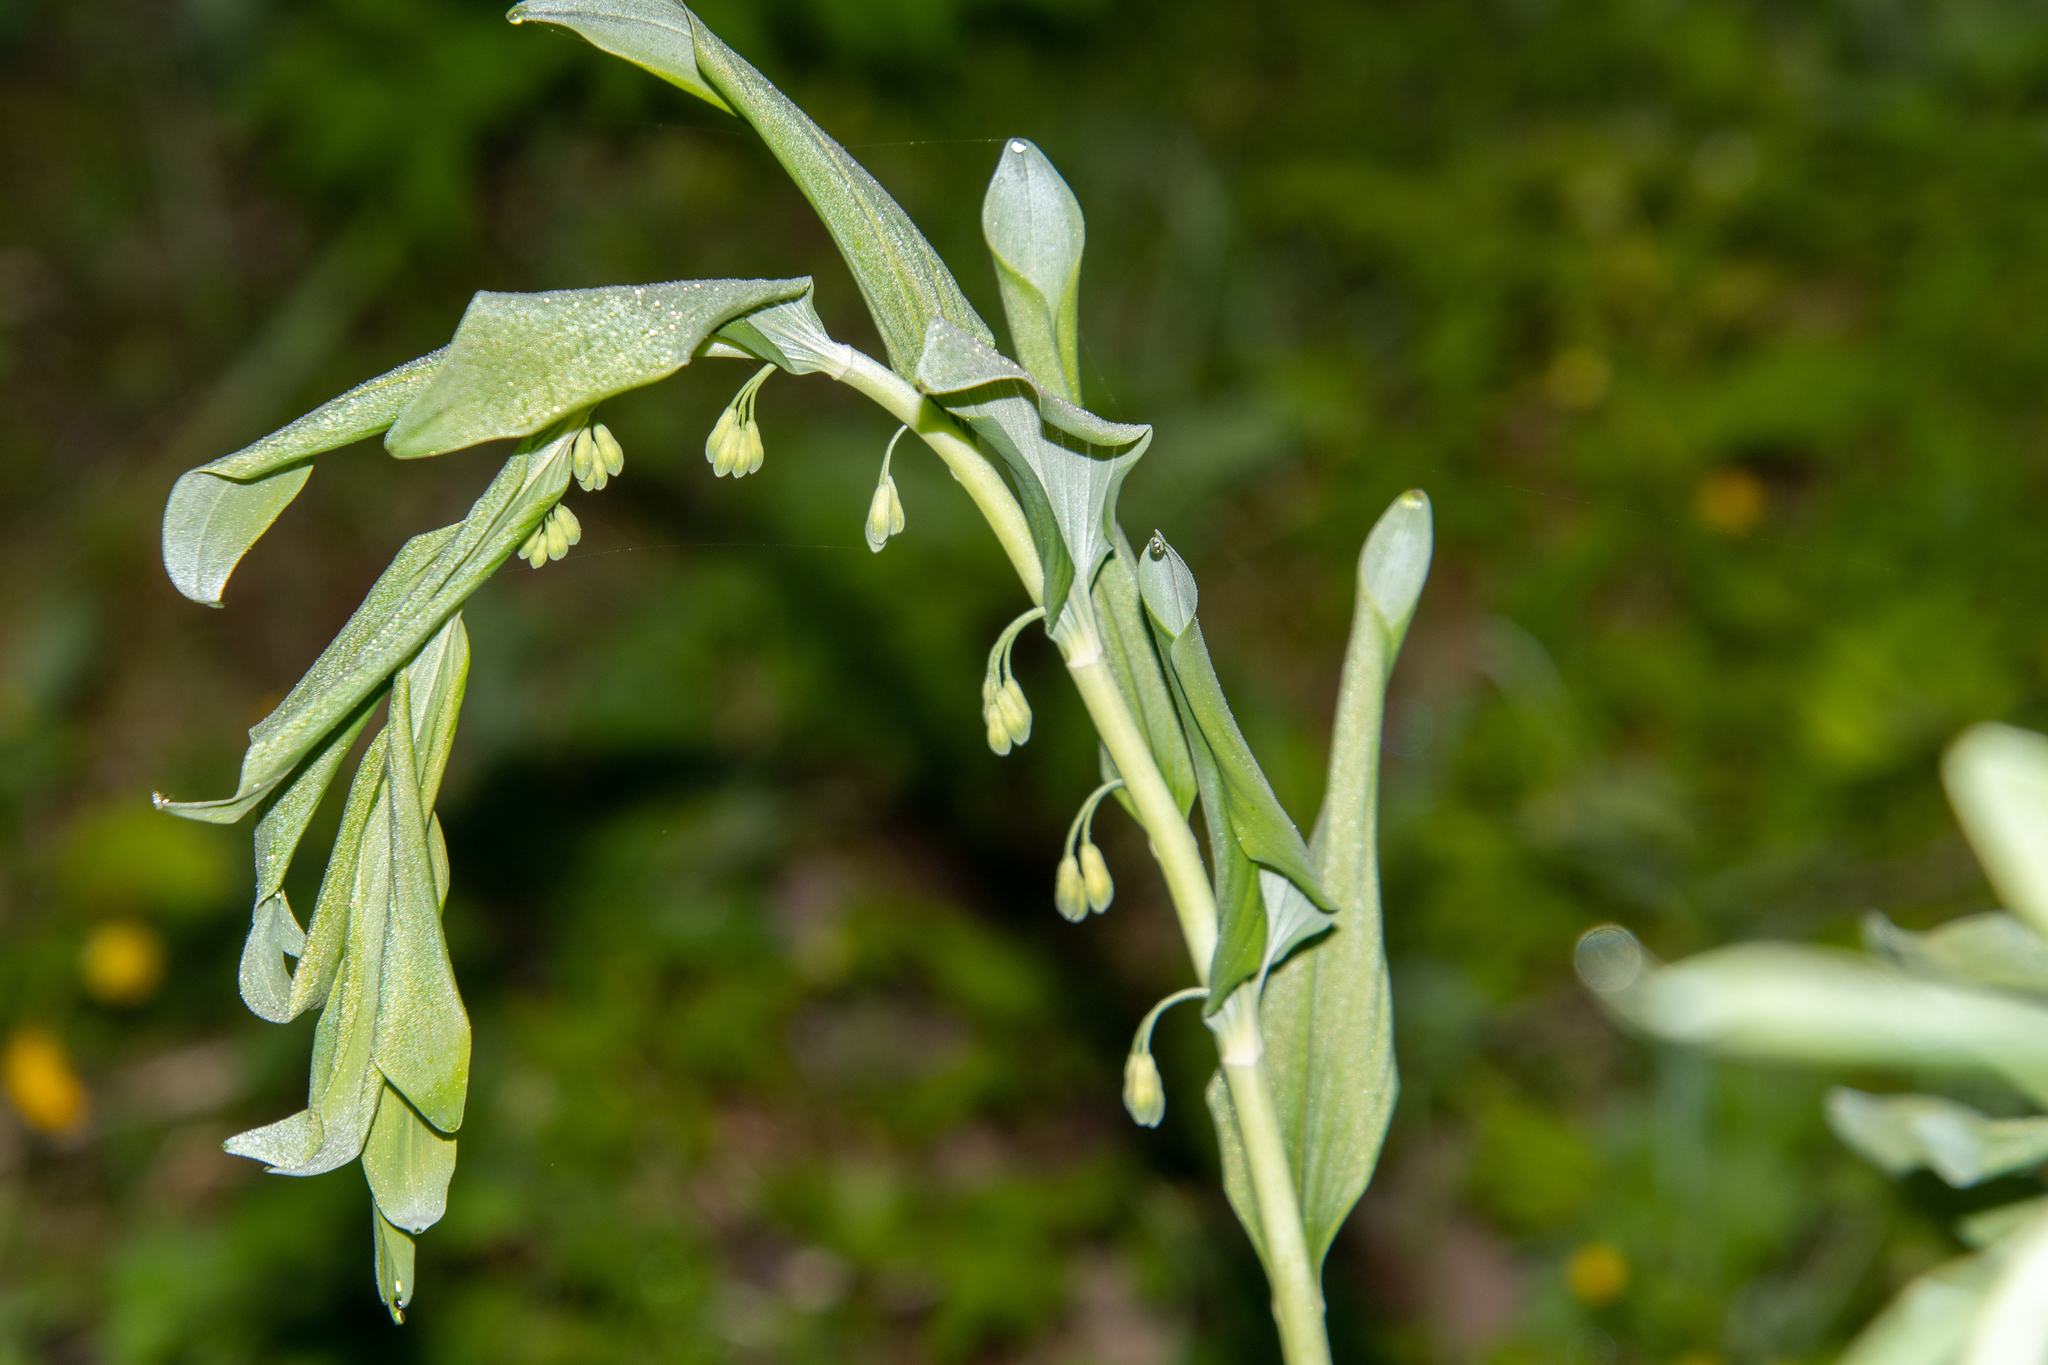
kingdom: Plantae
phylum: Tracheophyta
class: Liliopsida
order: Asparagales
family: Asparagaceae
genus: Polygonatum
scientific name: Polygonatum multiflorum
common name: Solomon's-seal
